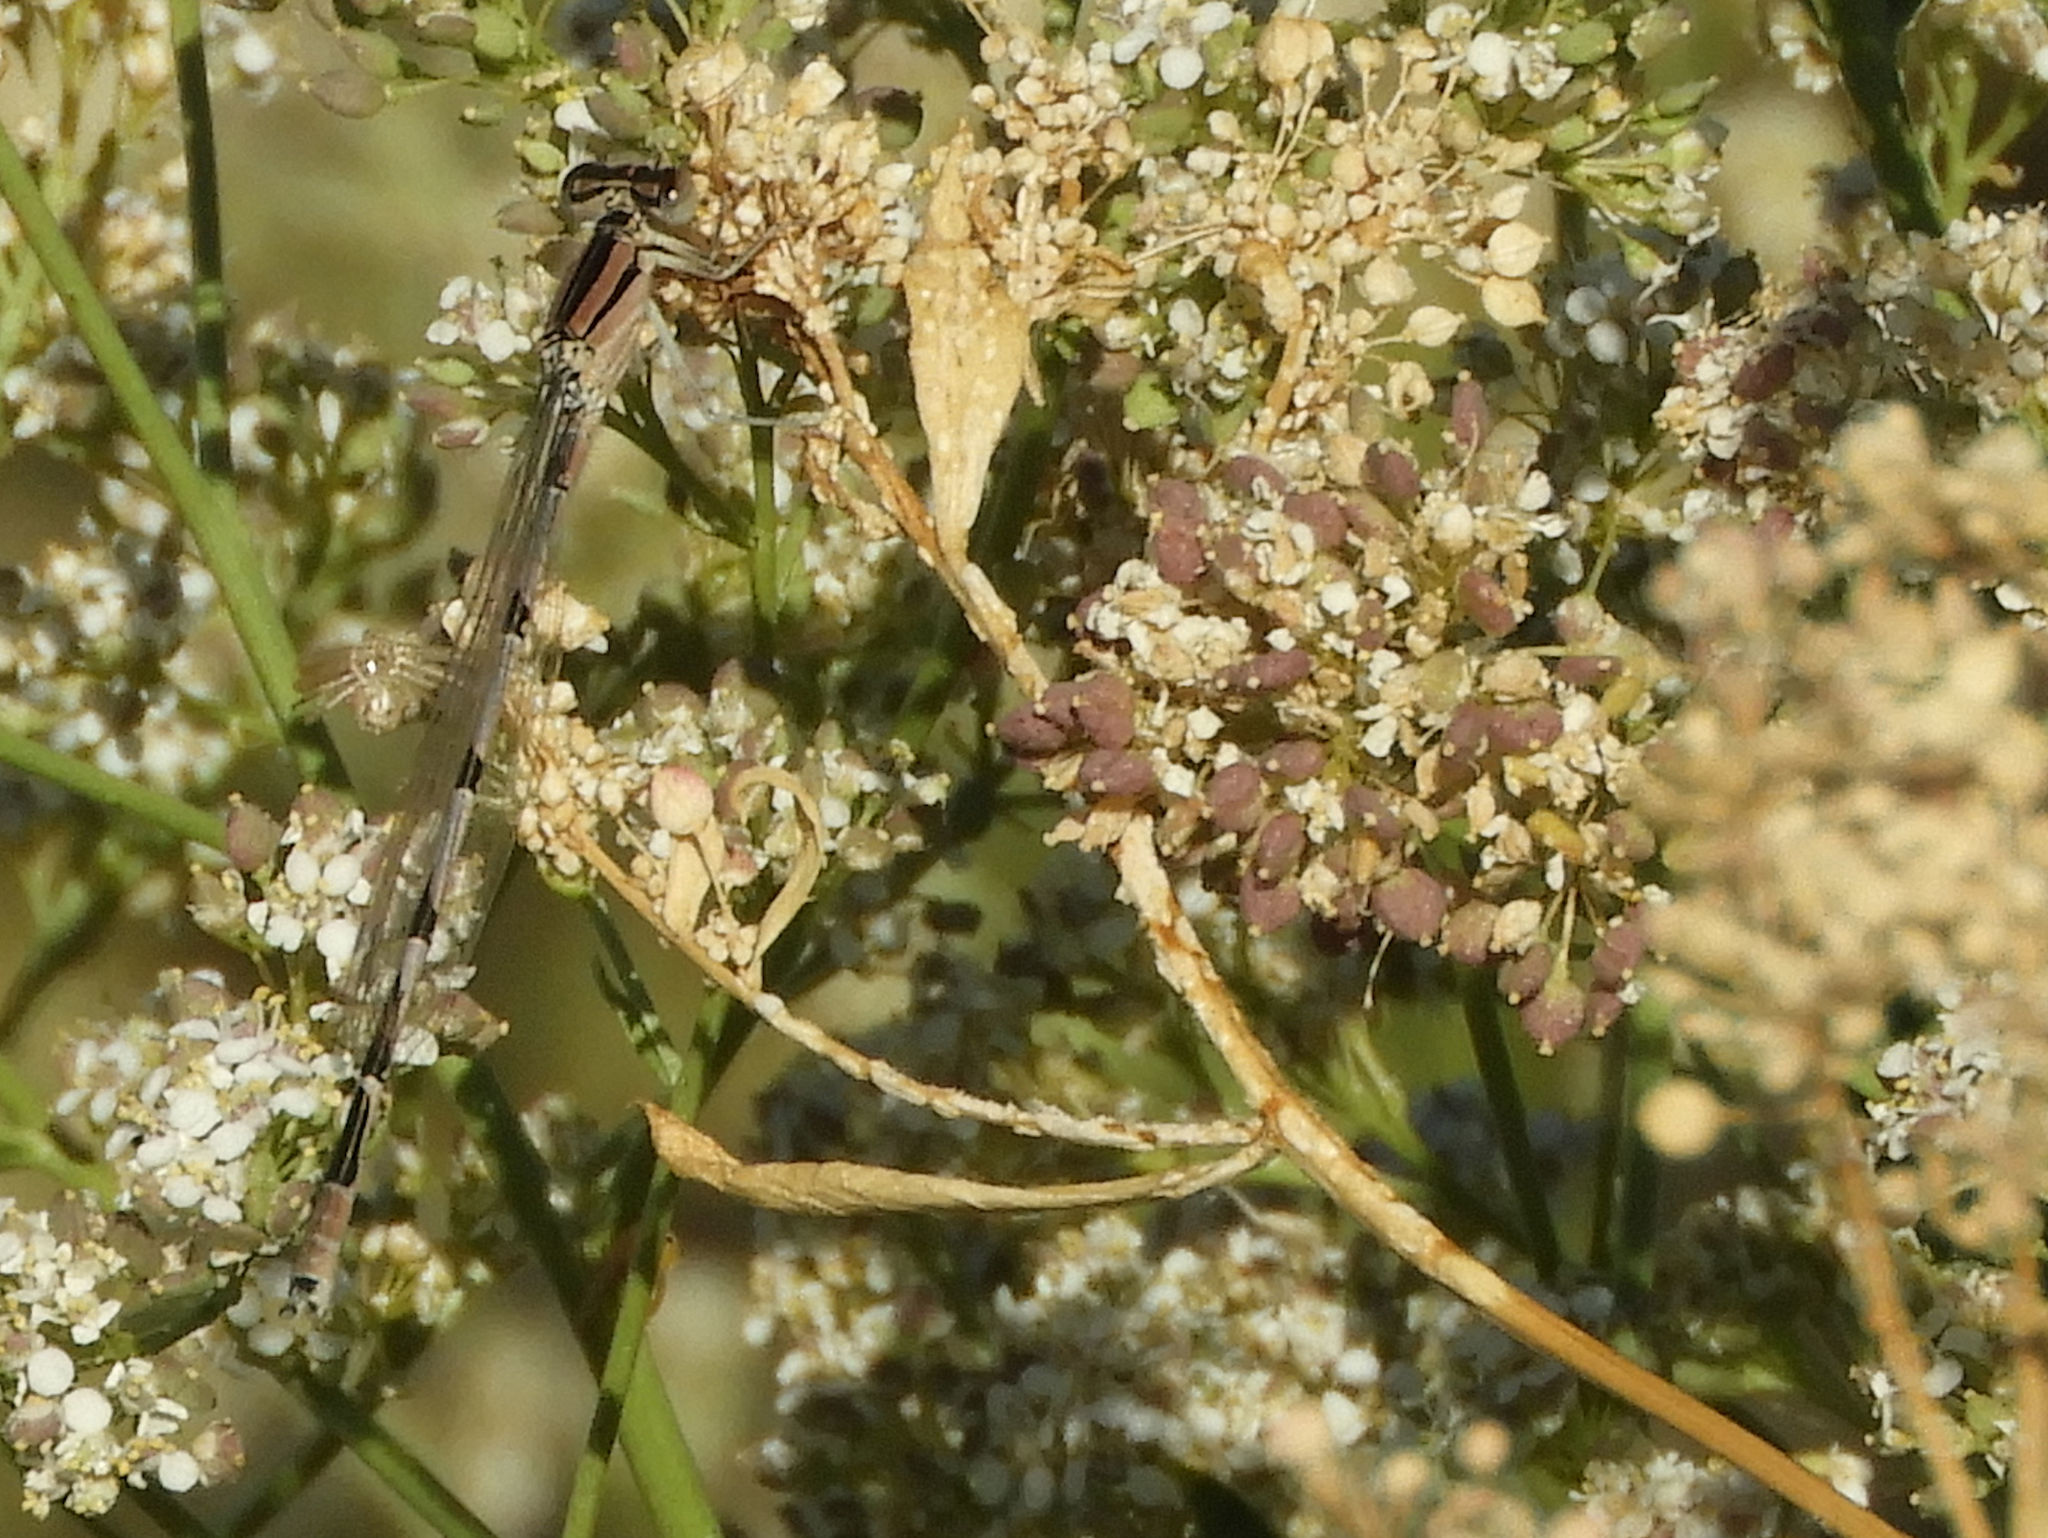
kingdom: Animalia
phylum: Arthropoda
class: Insecta
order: Odonata
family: Coenagrionidae
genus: Enallagma
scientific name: Enallagma civile
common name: Damselfly
